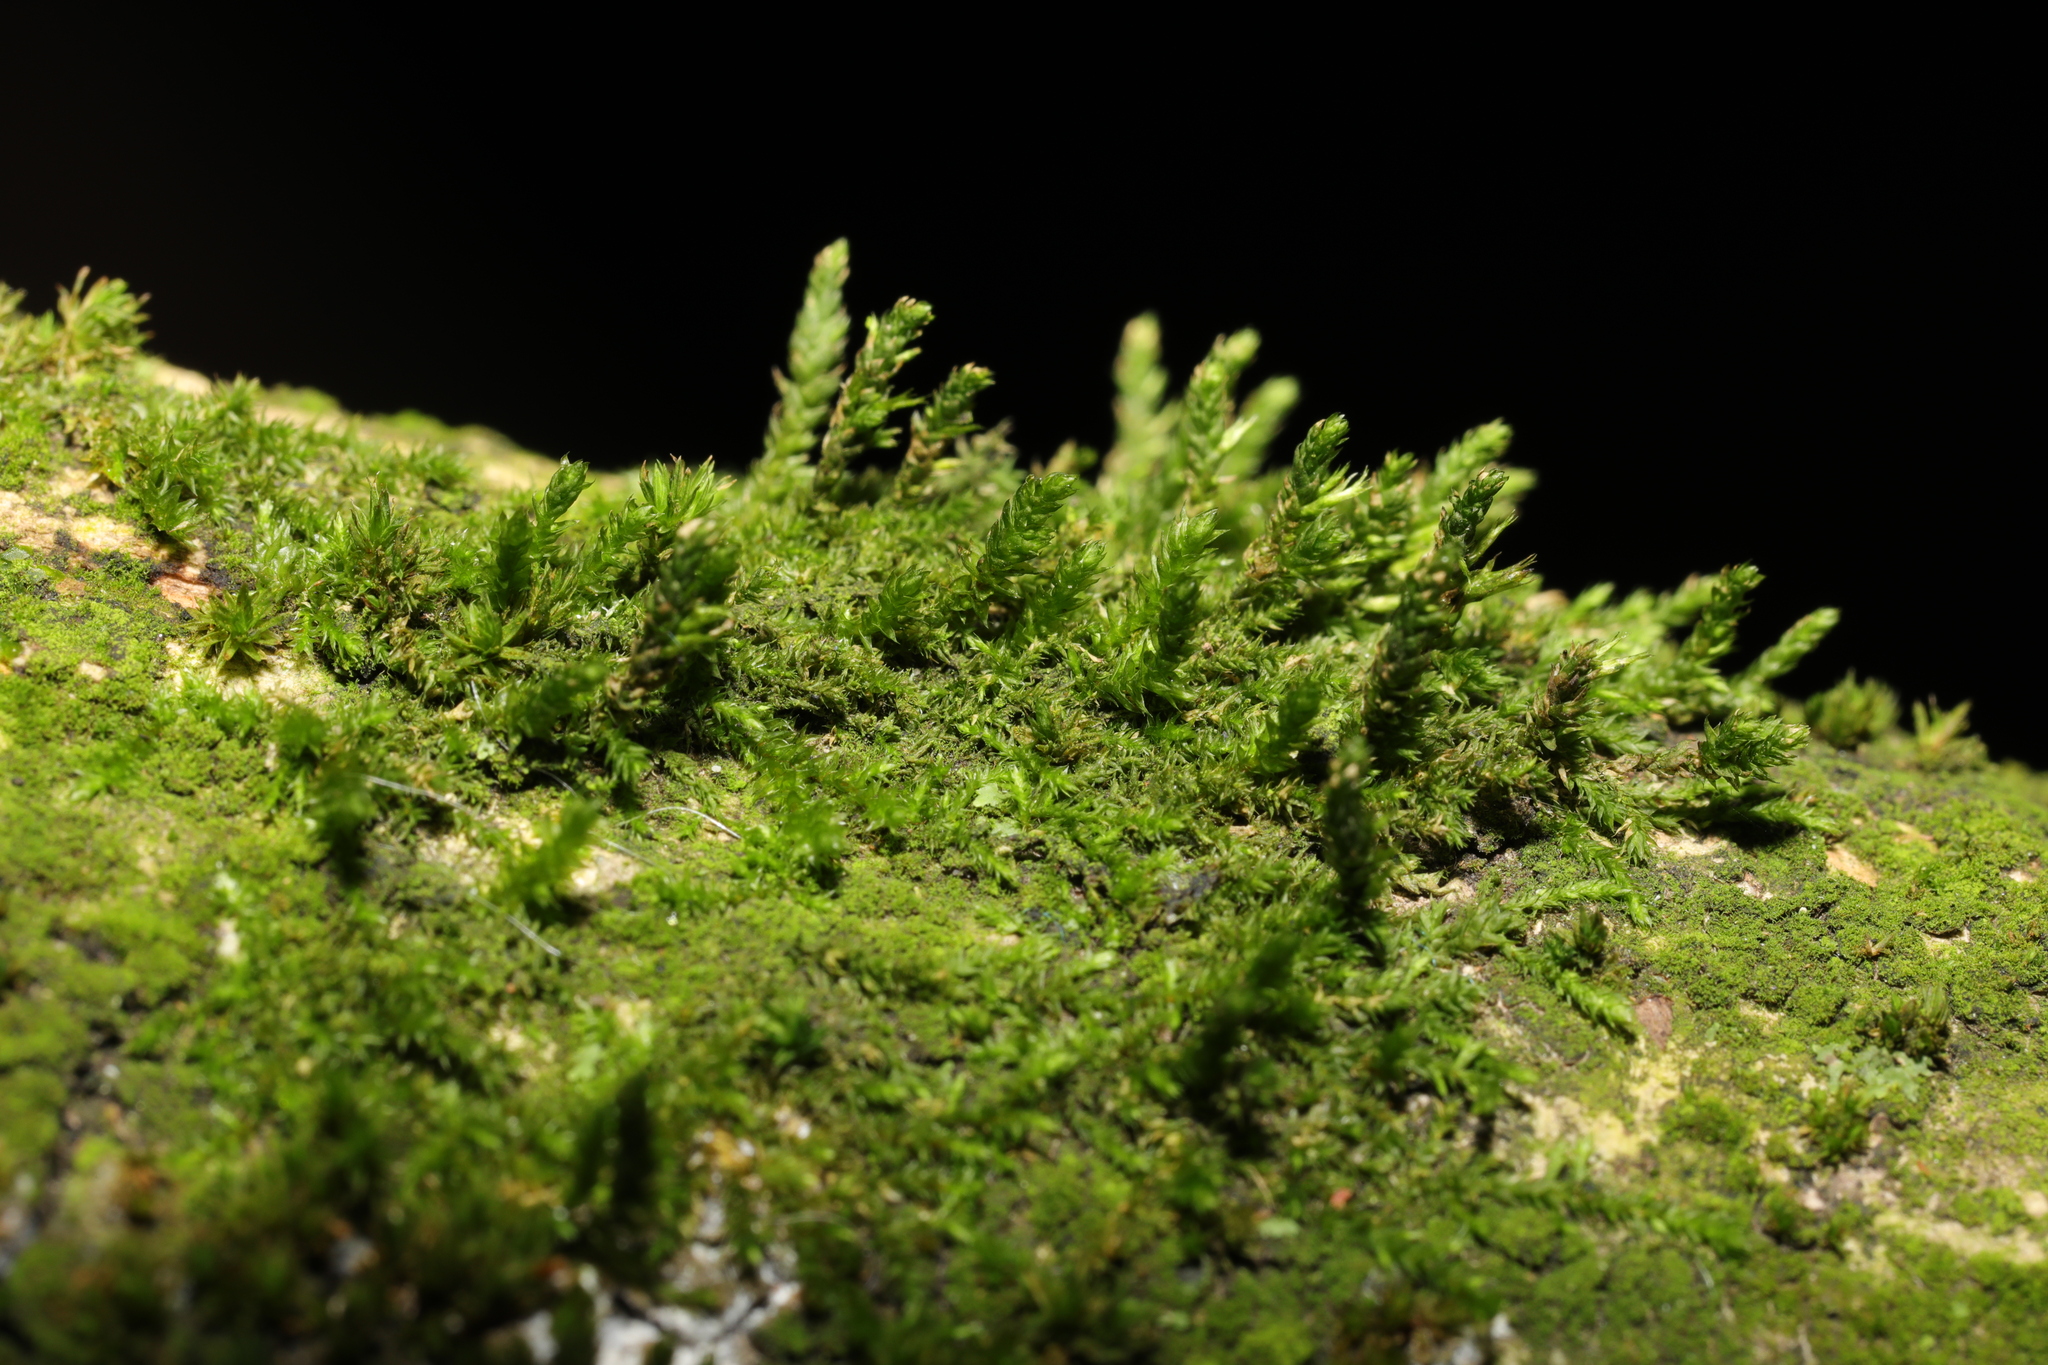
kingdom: Plantae
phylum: Bryophyta
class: Bryopsida
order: Hypnales
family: Cryphaeaceae
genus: Cryphaea
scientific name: Cryphaea heteromalla
